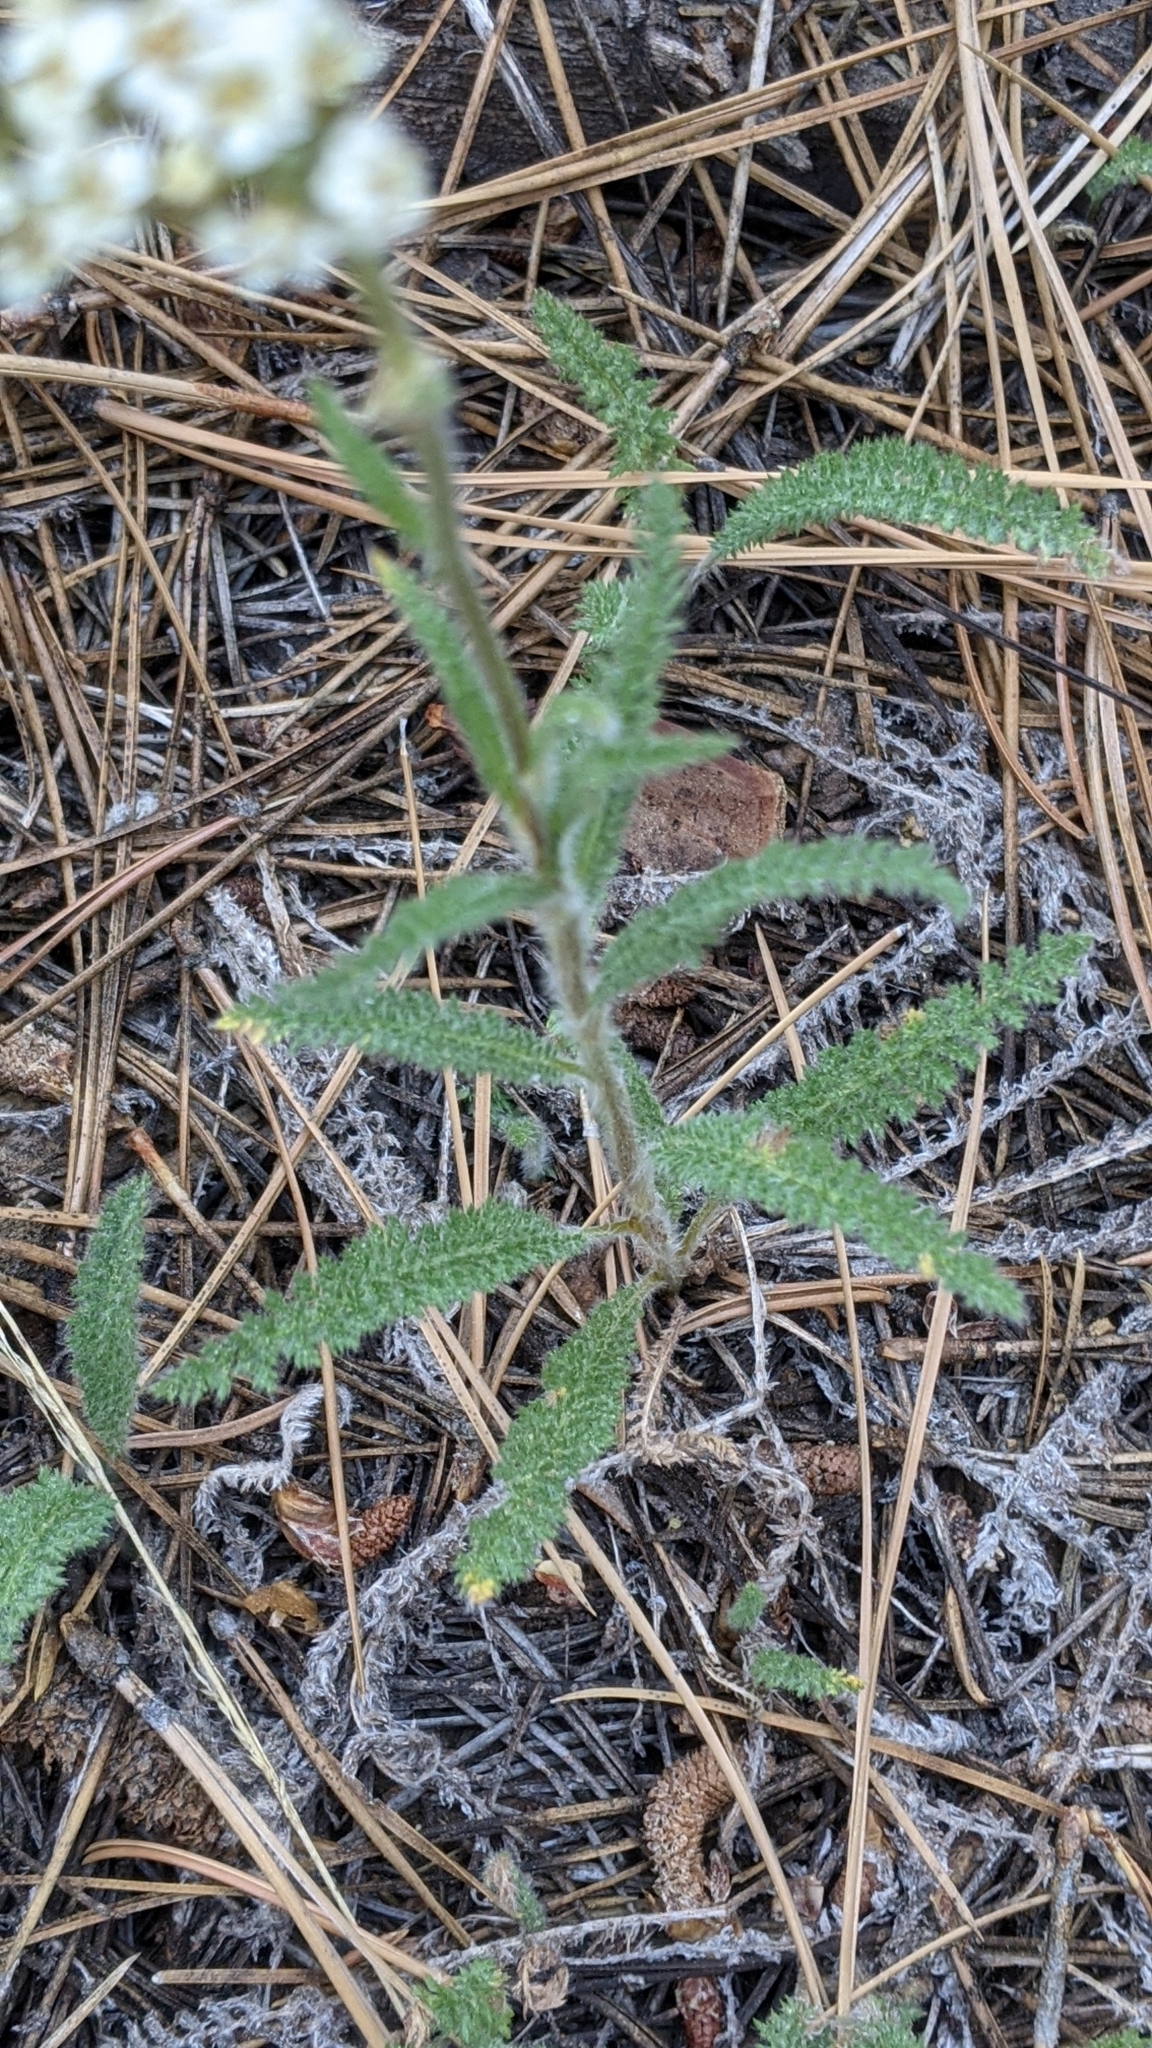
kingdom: Plantae
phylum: Tracheophyta
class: Magnoliopsida
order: Asterales
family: Asteraceae
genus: Achillea
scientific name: Achillea millefolium
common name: Yarrow
